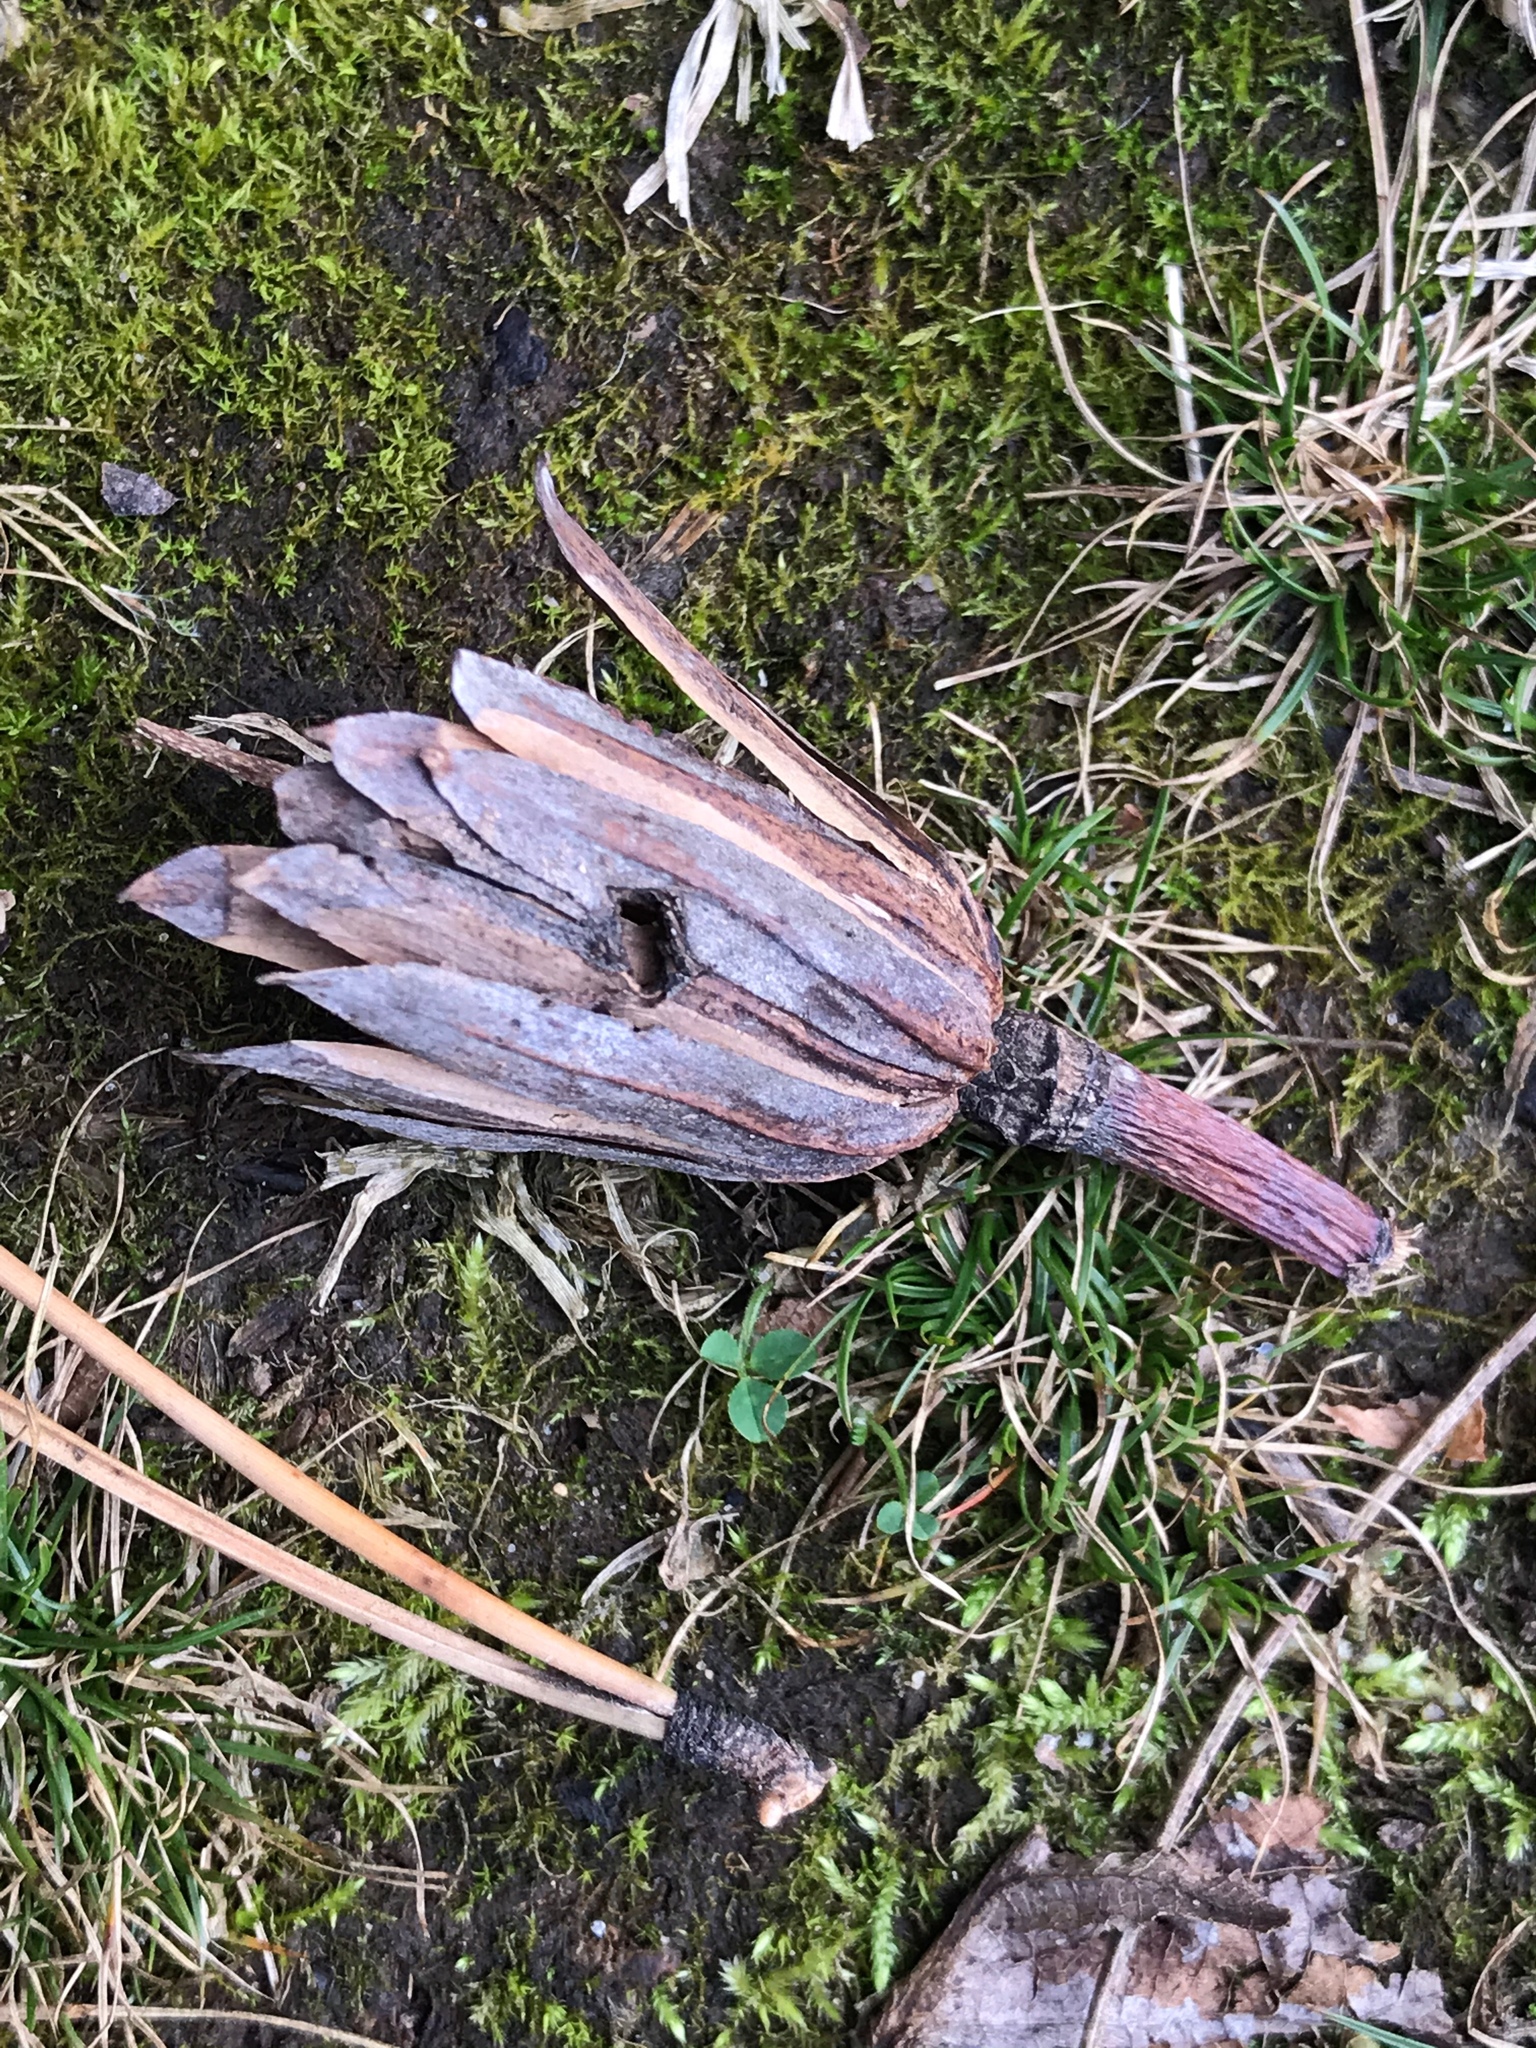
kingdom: Plantae
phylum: Tracheophyta
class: Magnoliopsida
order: Magnoliales
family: Magnoliaceae
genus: Liriodendron
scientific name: Liriodendron tulipifera
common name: Tulip tree
